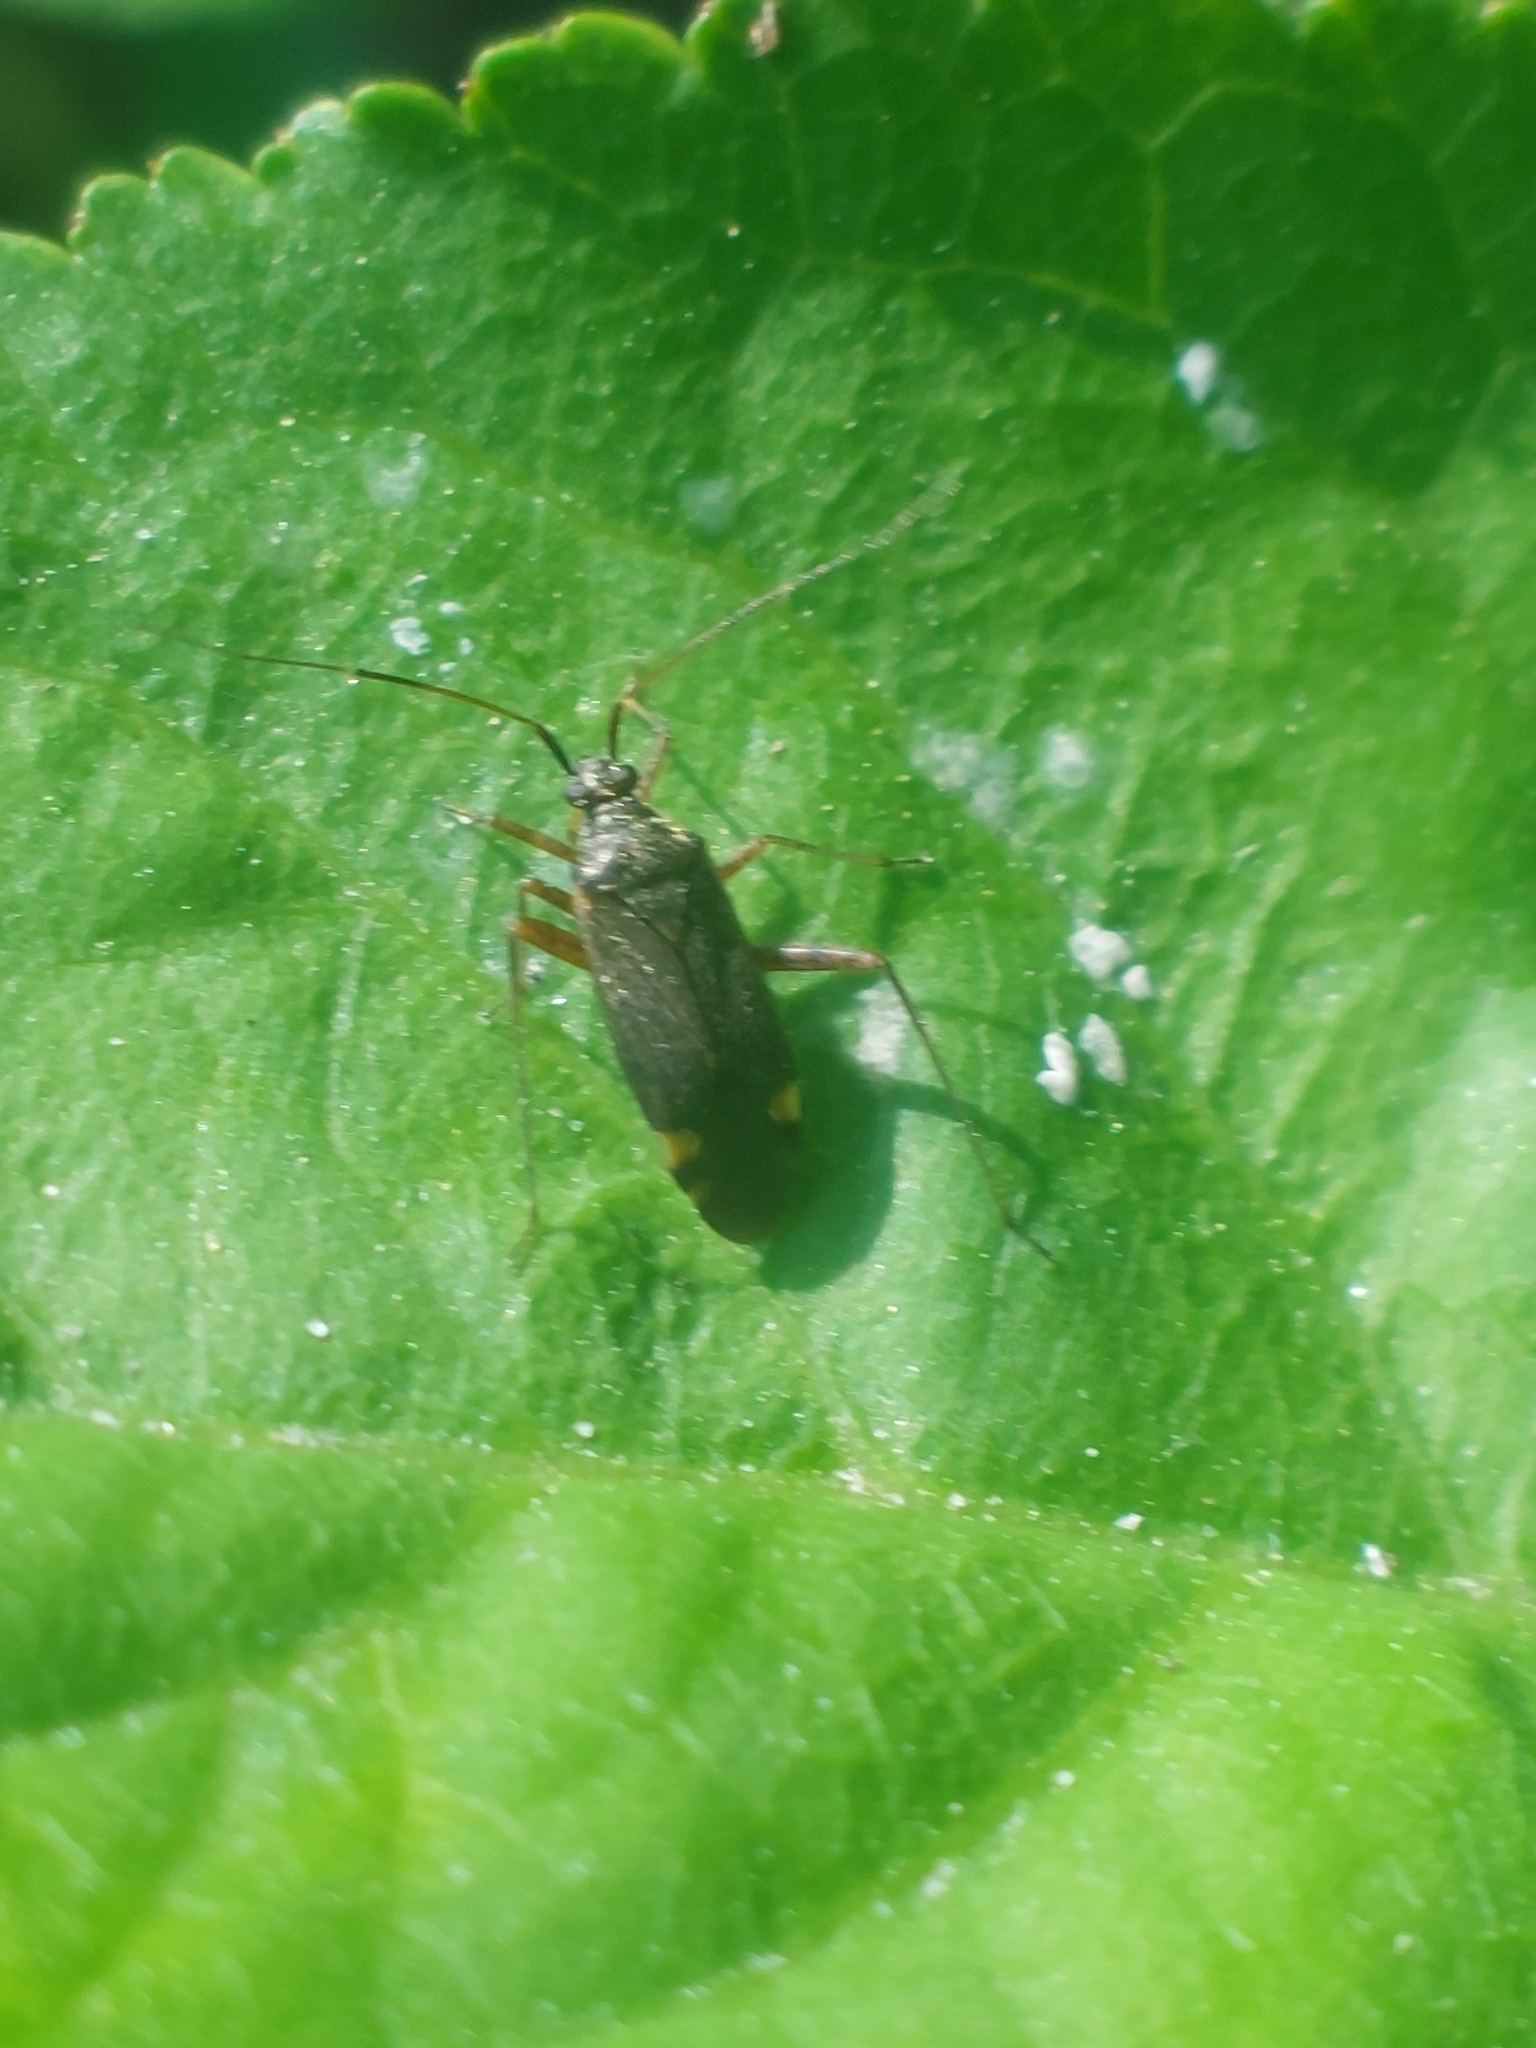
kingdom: Animalia
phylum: Arthropoda
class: Insecta
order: Hemiptera
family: Miridae
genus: Closterotomus
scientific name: Closterotomus fulvomaculatus
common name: Spotted plant bug
